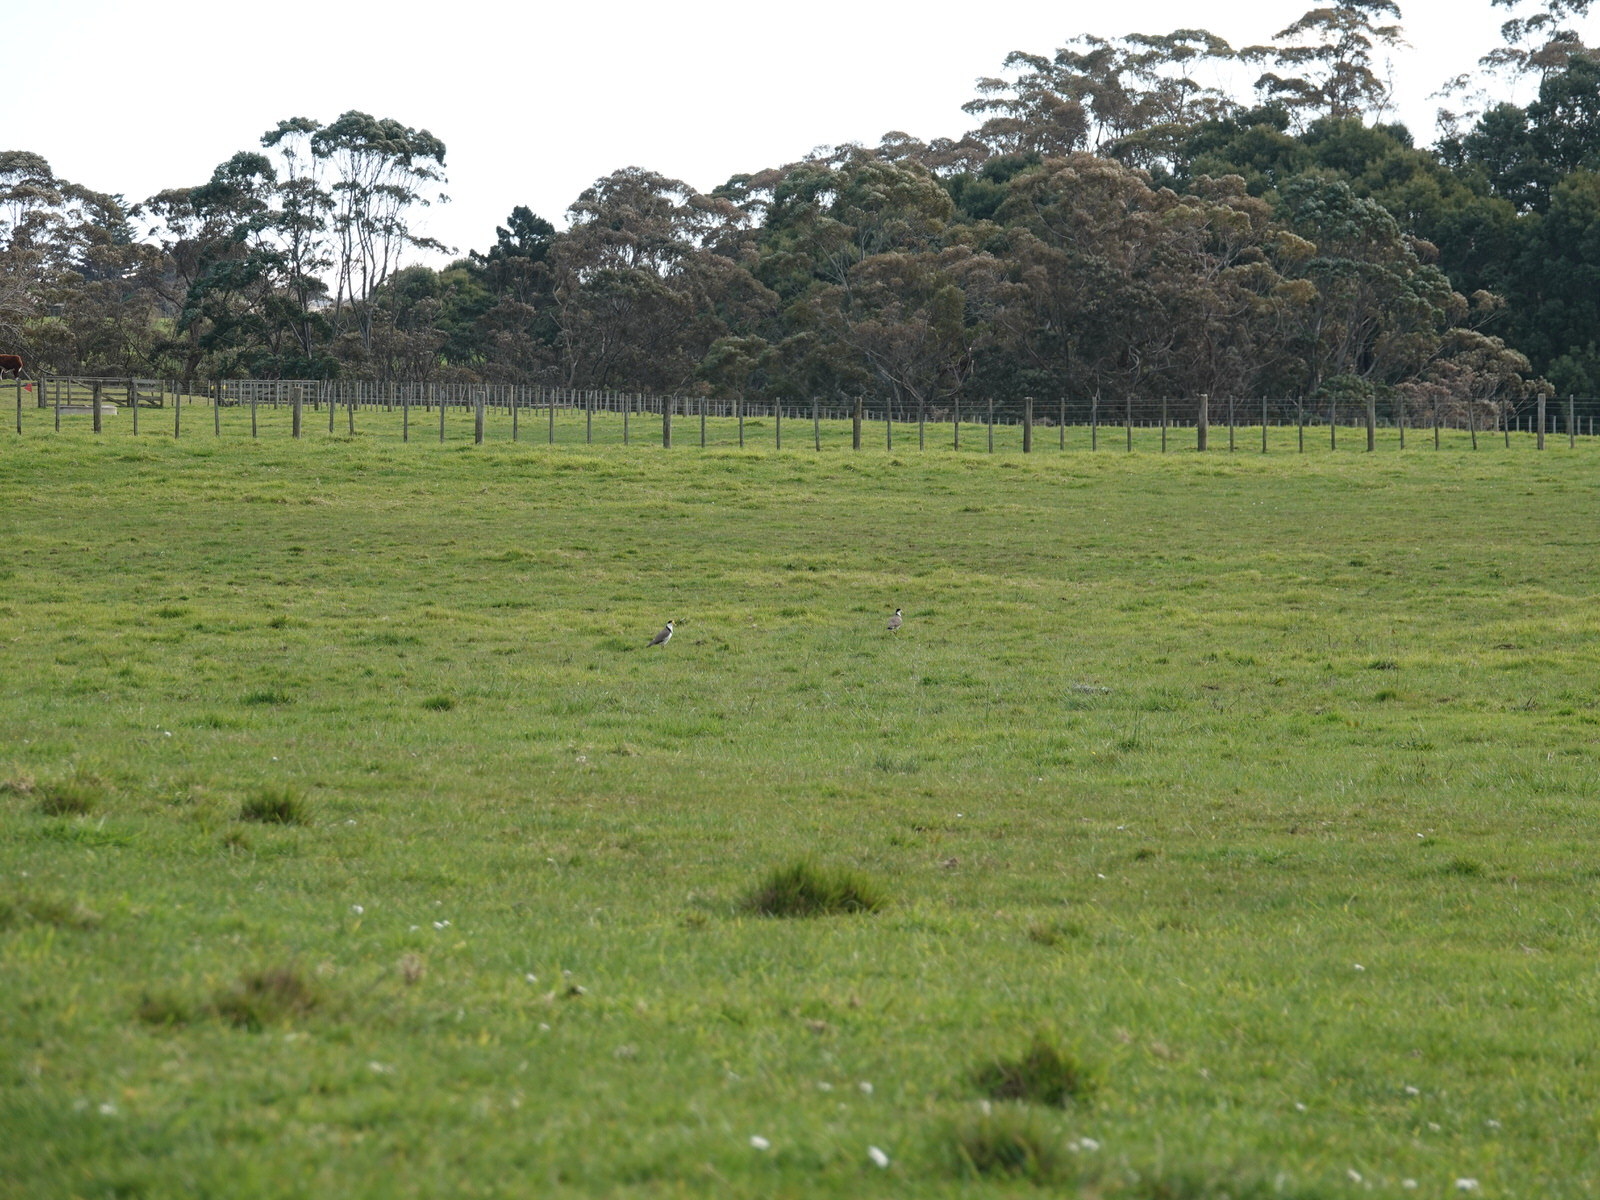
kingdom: Animalia
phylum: Chordata
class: Aves
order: Charadriiformes
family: Charadriidae
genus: Vanellus
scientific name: Vanellus miles
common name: Masked lapwing
